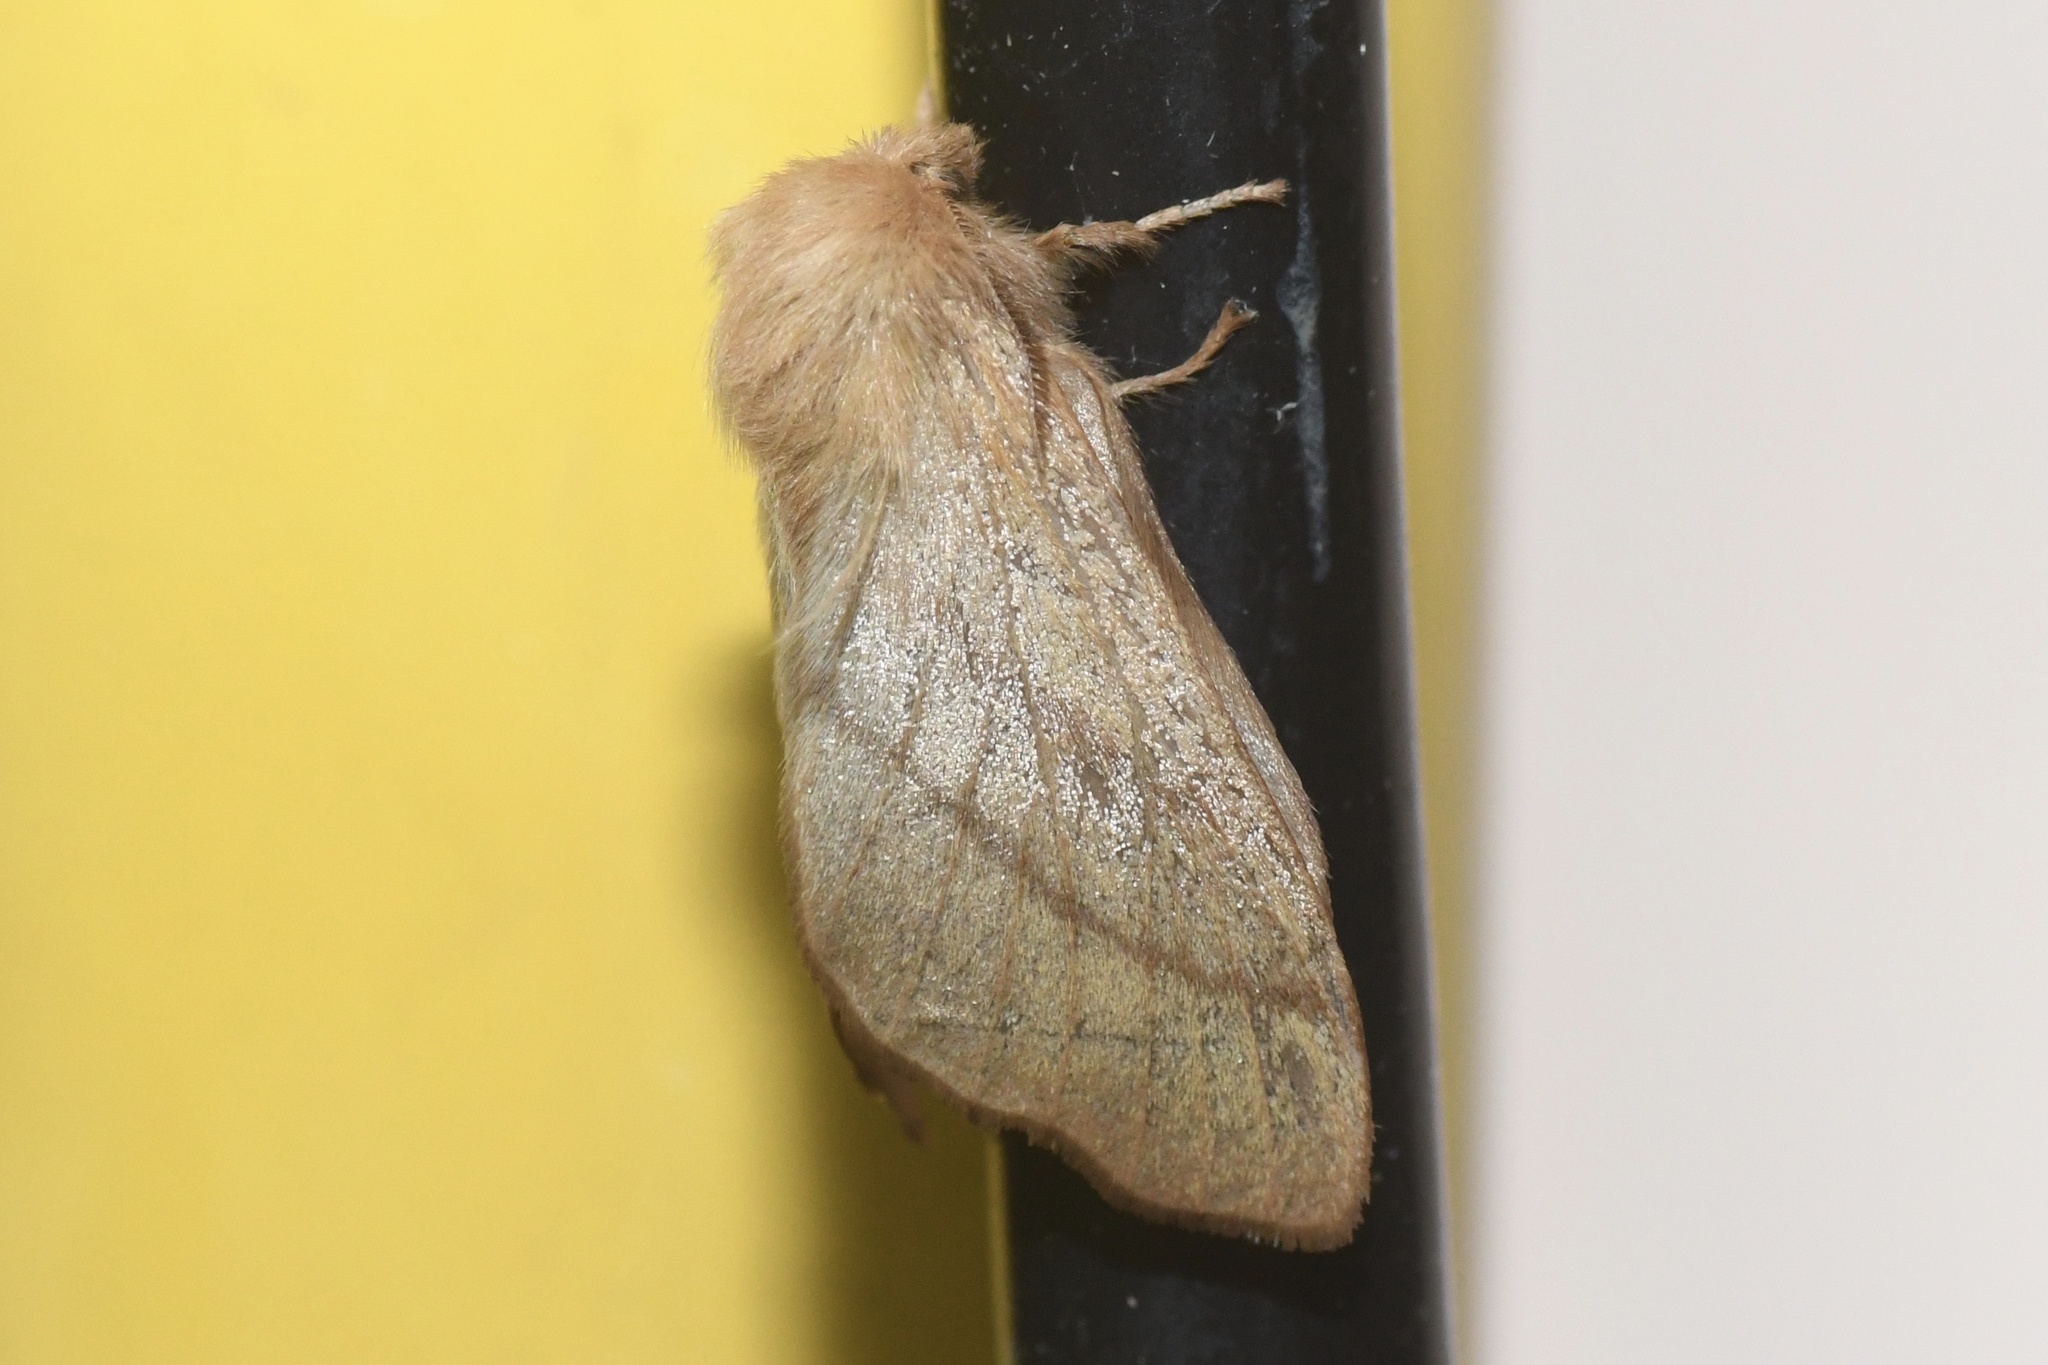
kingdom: Animalia
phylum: Arthropoda
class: Insecta
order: Lepidoptera
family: Lasiocampidae
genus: Malacosoma
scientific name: Malacosoma disstria
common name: Forest tent caterpillar
